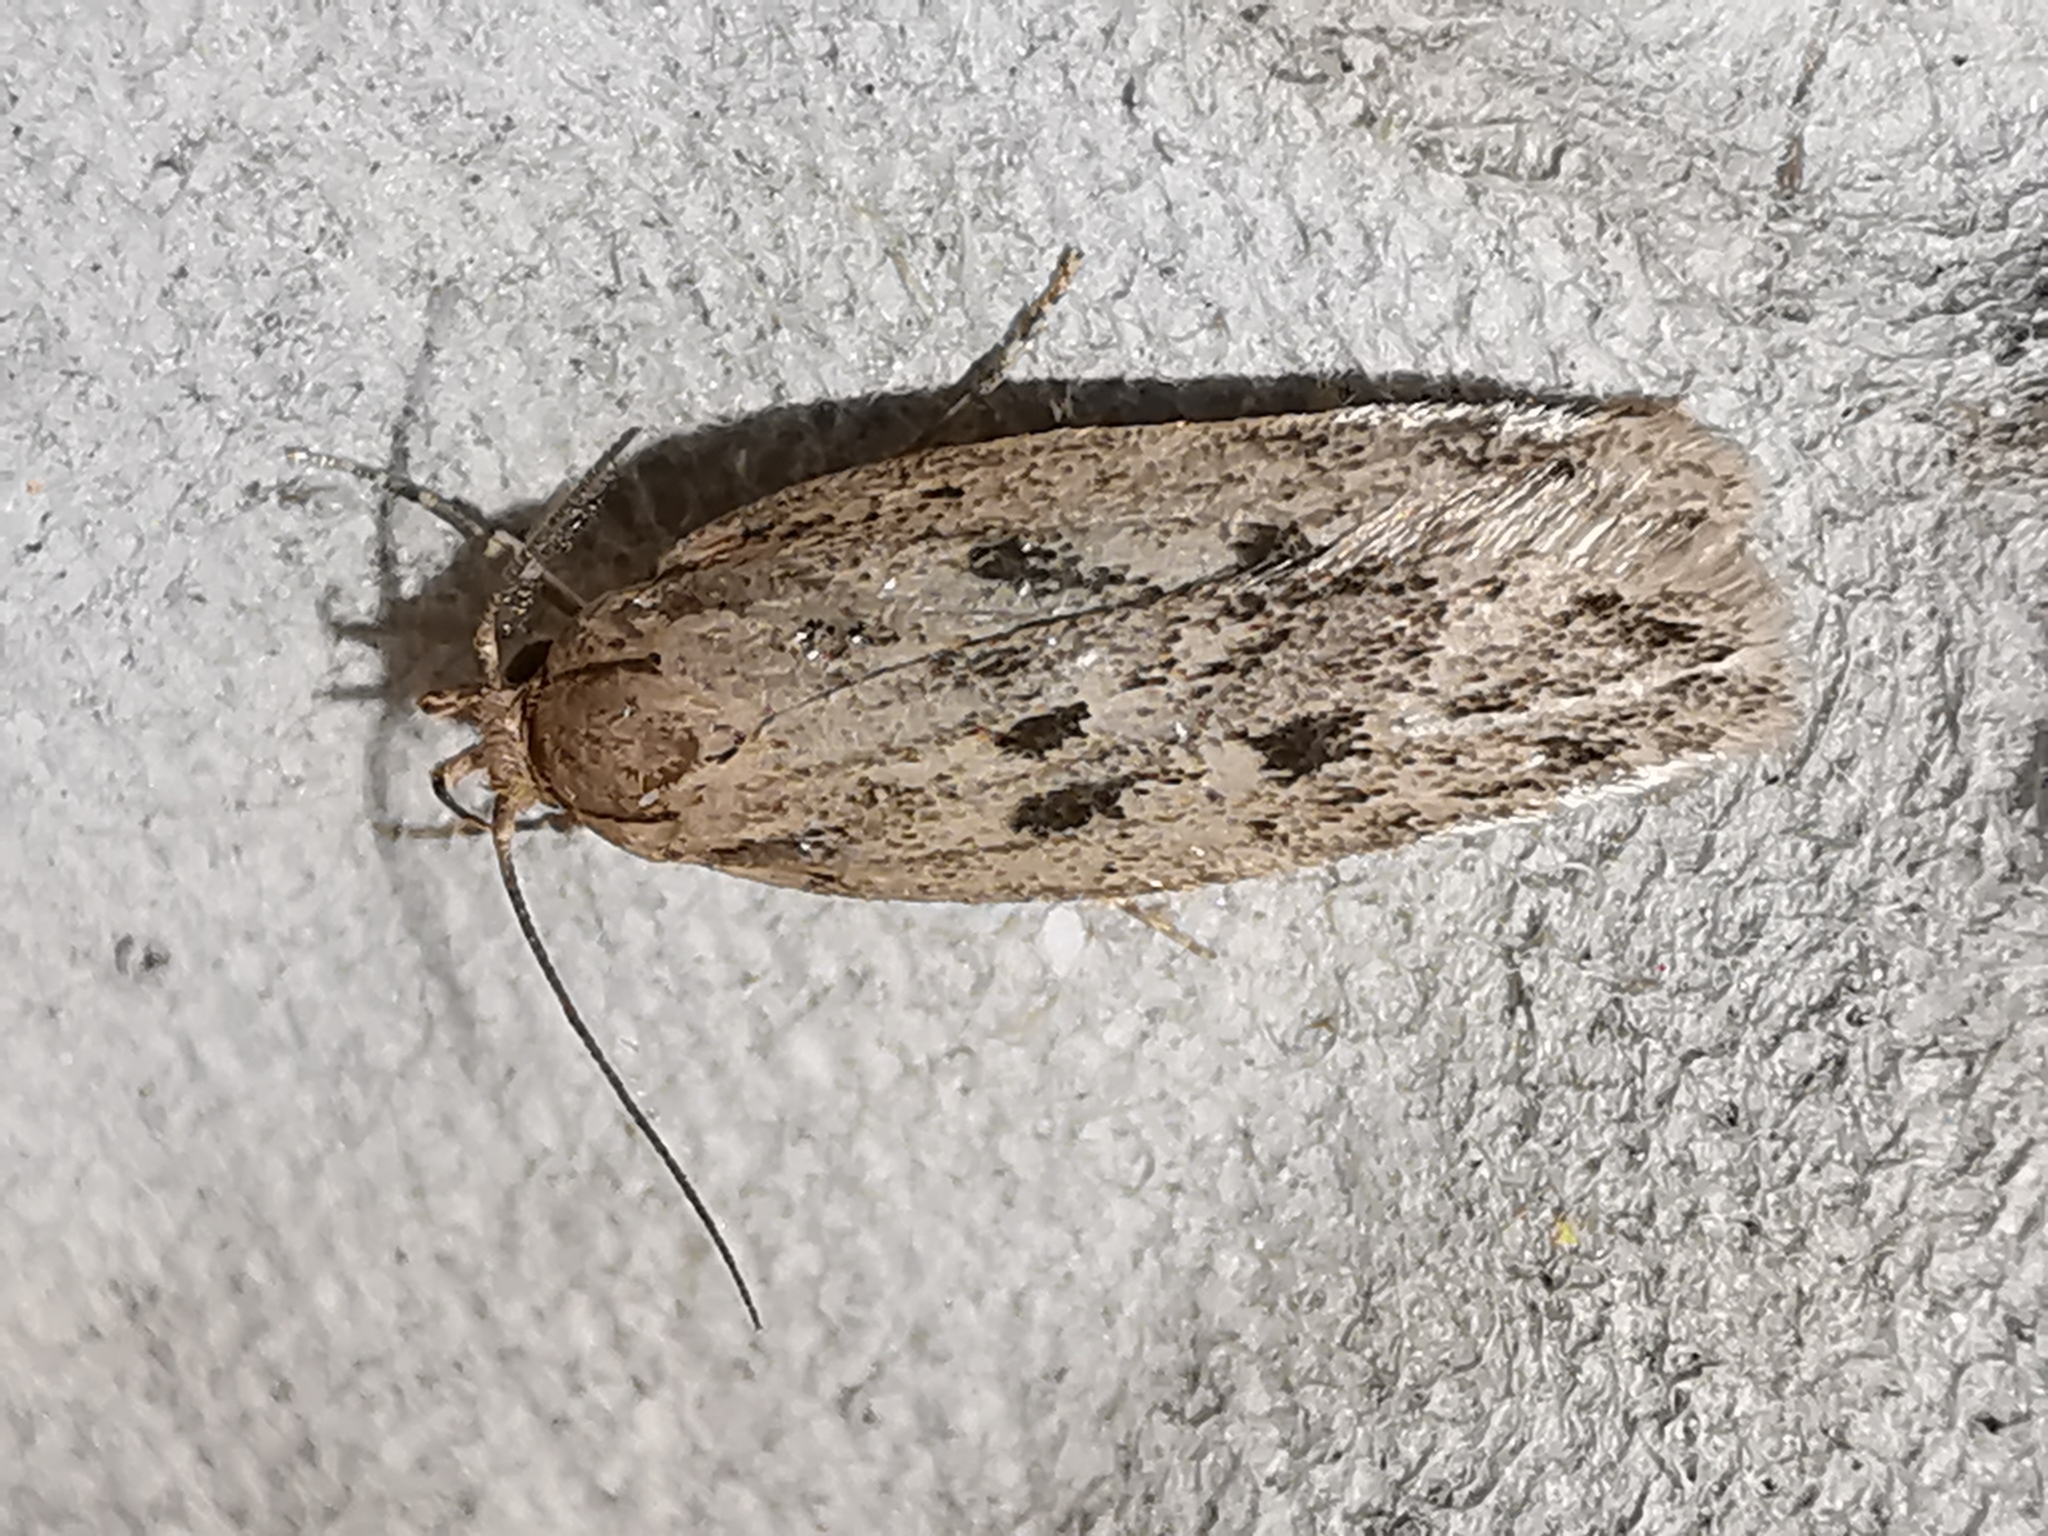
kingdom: Animalia
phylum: Arthropoda
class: Insecta
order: Lepidoptera
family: Oecophoridae
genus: Hofmannophila
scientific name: Hofmannophila pseudospretella
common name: Brown house moth
